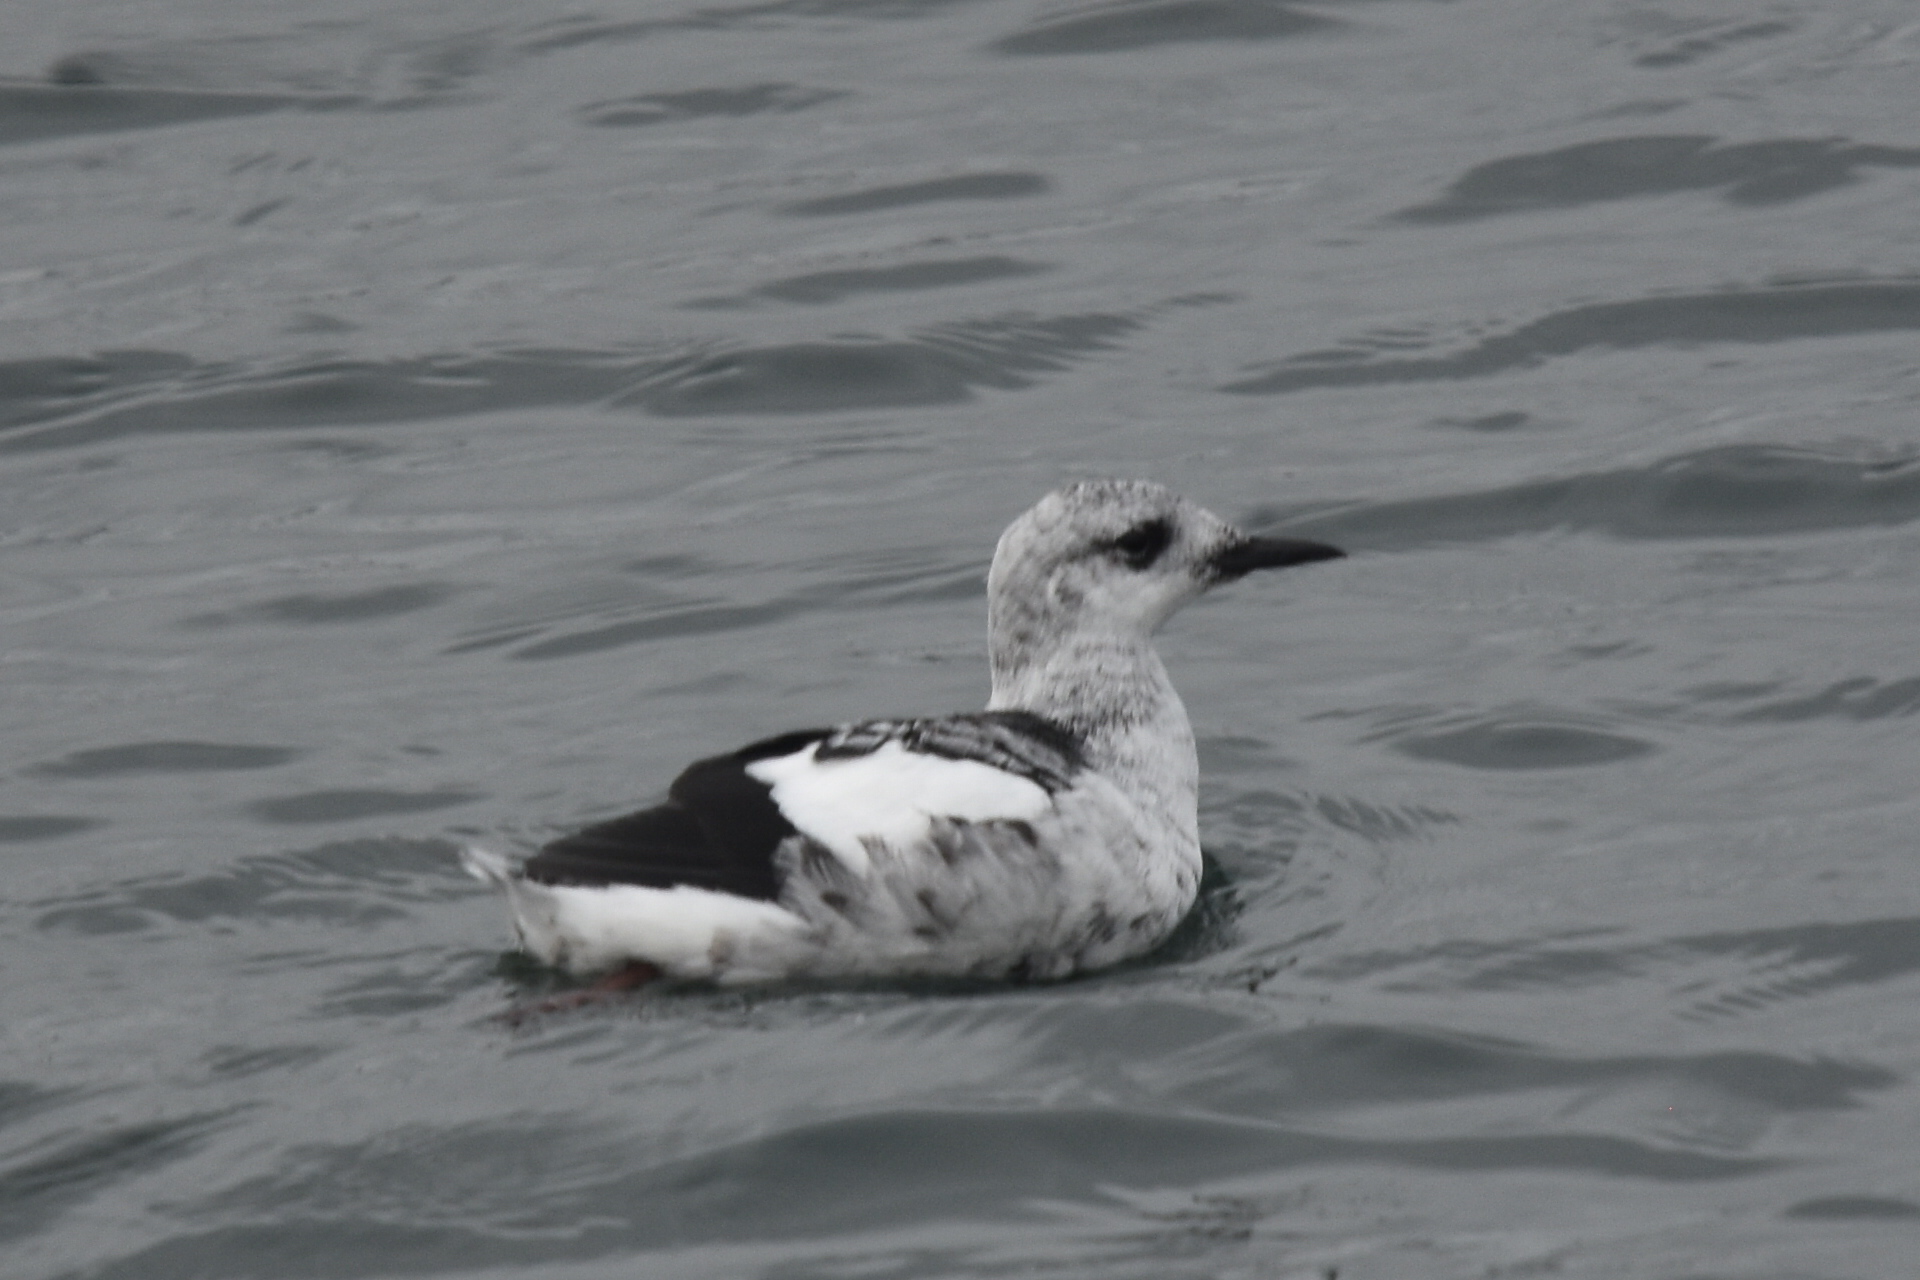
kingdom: Animalia
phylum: Chordata
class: Aves
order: Charadriiformes
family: Alcidae
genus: Cepphus
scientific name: Cepphus grylle
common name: Black guillemot
